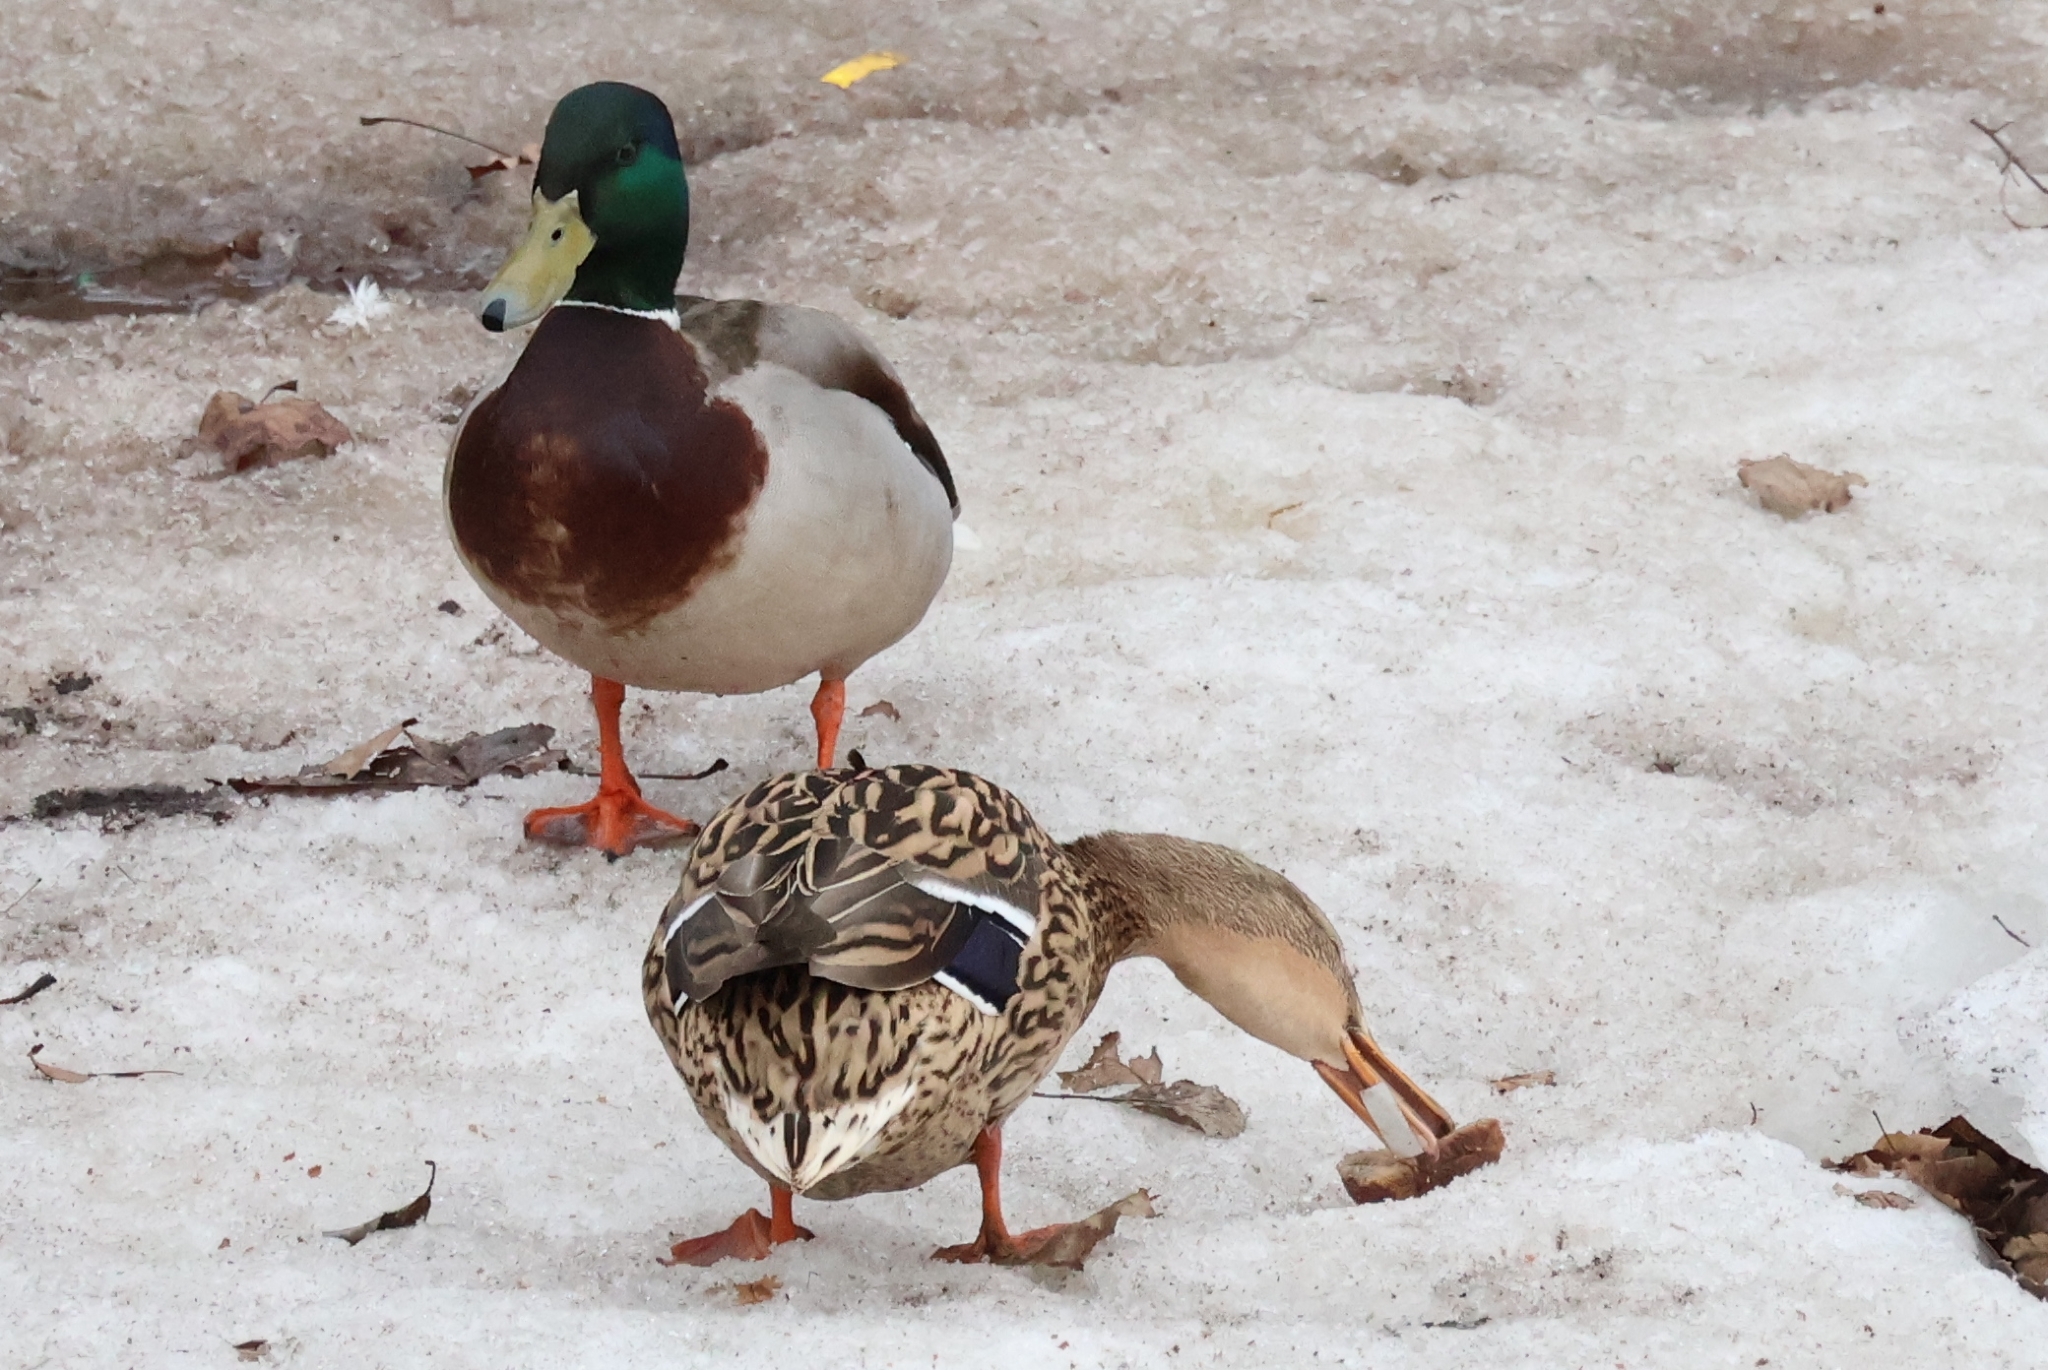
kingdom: Animalia
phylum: Chordata
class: Aves
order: Anseriformes
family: Anatidae
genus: Anas
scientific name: Anas platyrhynchos
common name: Mallard
